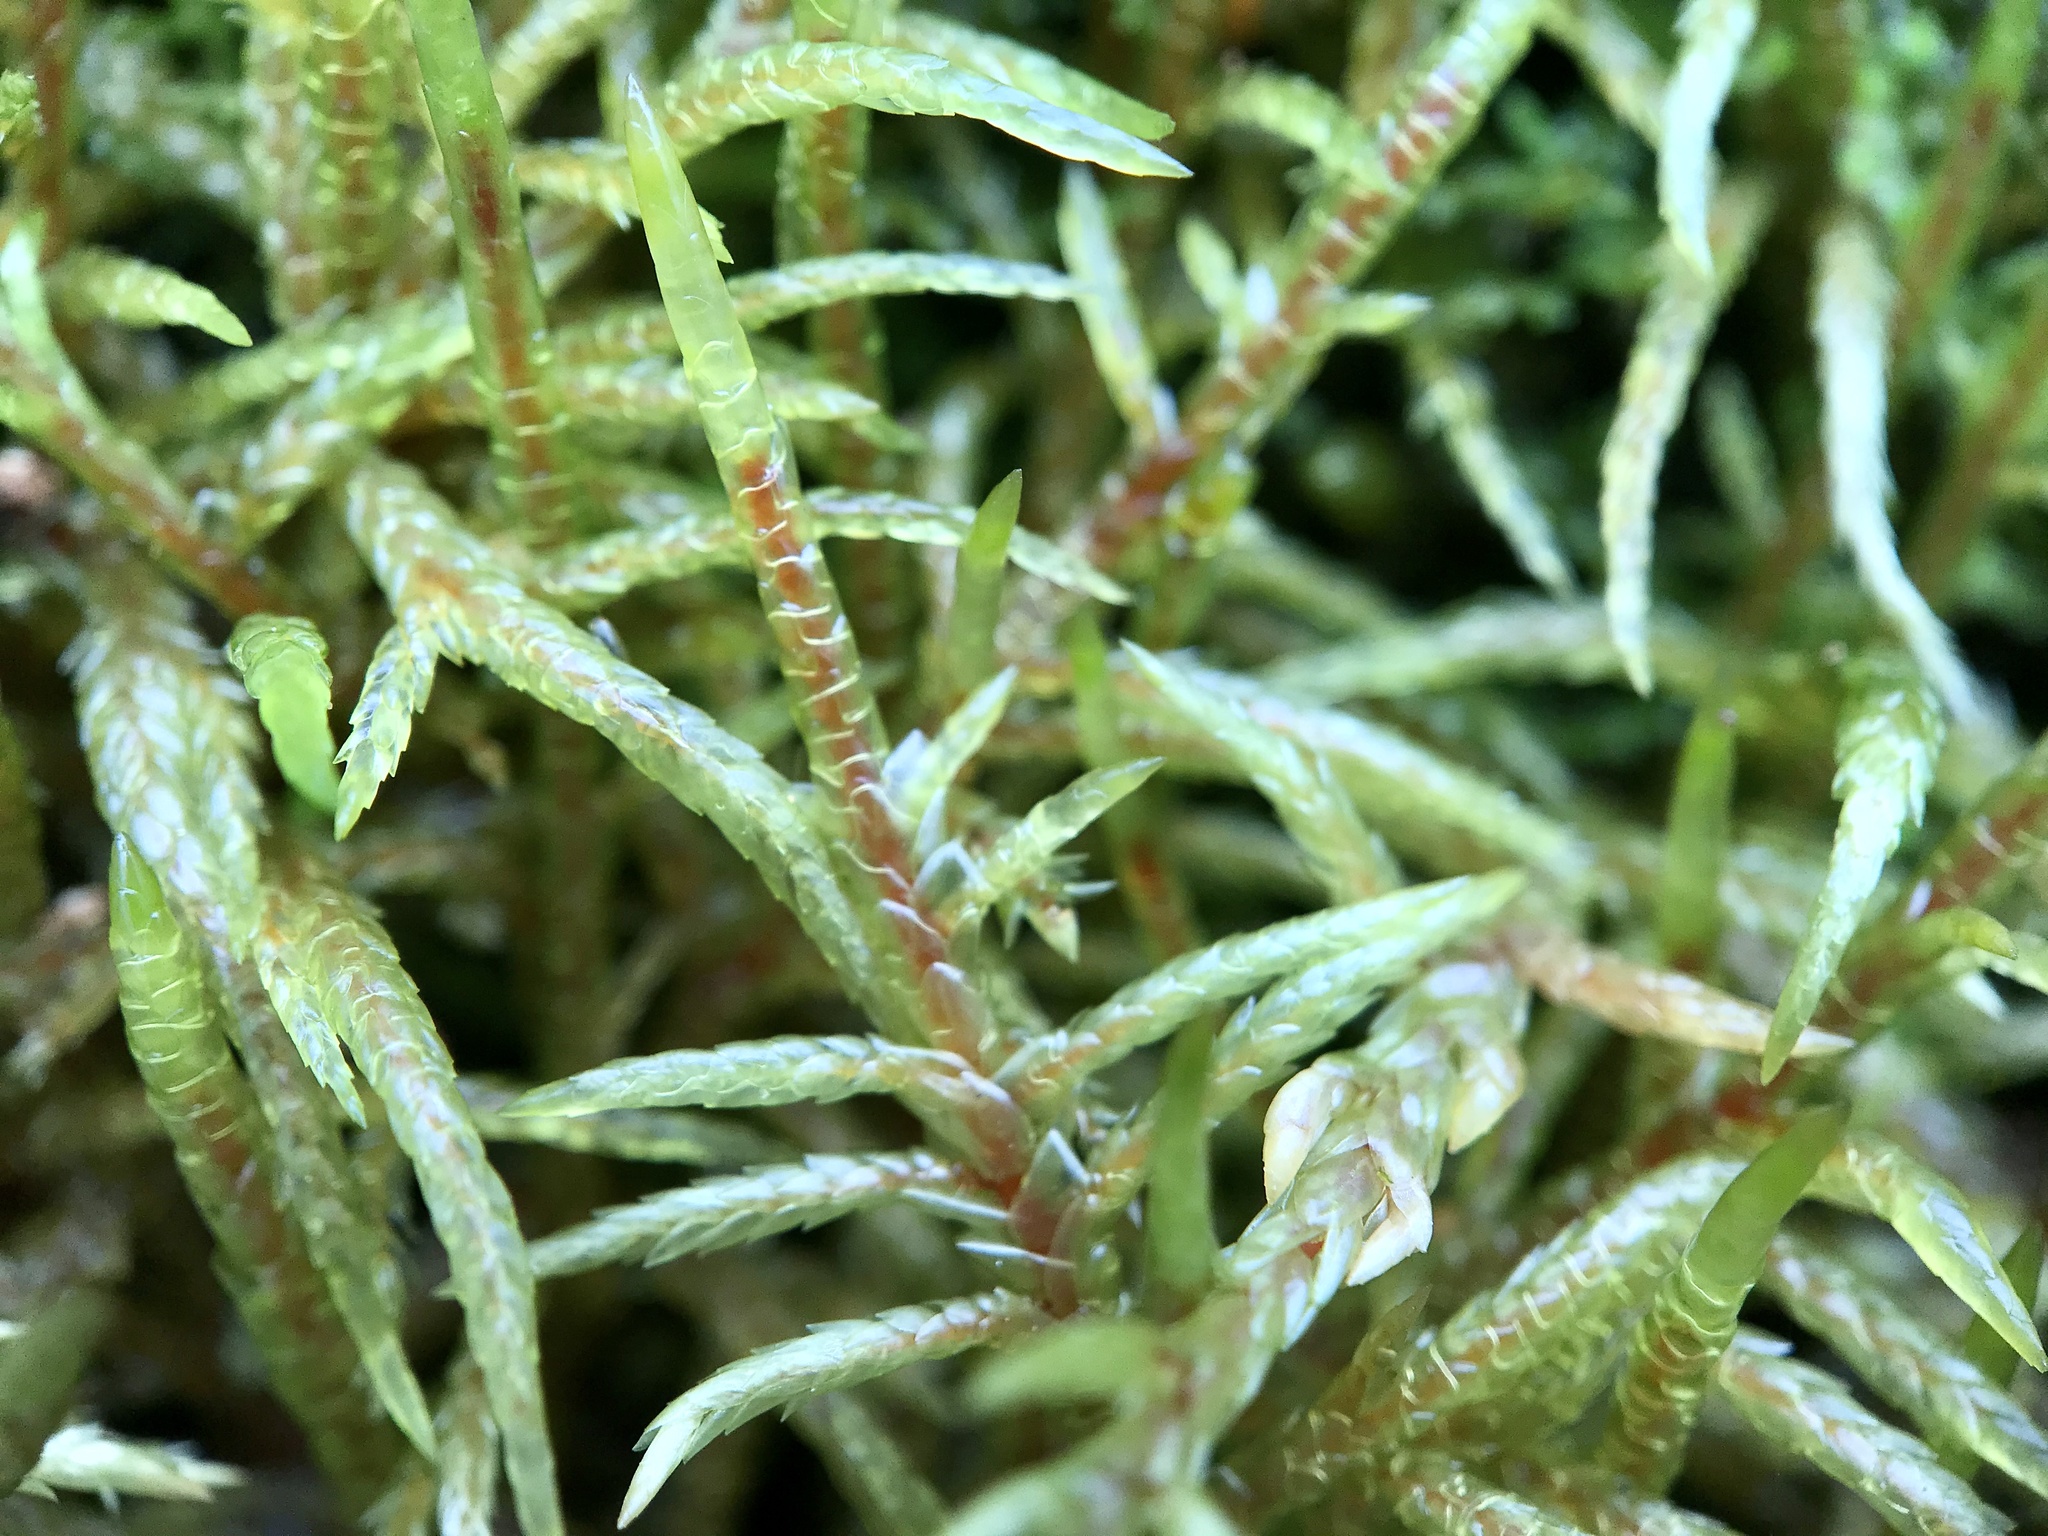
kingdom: Plantae
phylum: Bryophyta
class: Bryopsida
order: Hypnales
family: Hylocomiaceae
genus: Pleurozium
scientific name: Pleurozium schreberi
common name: Red-stemmed feather moss
